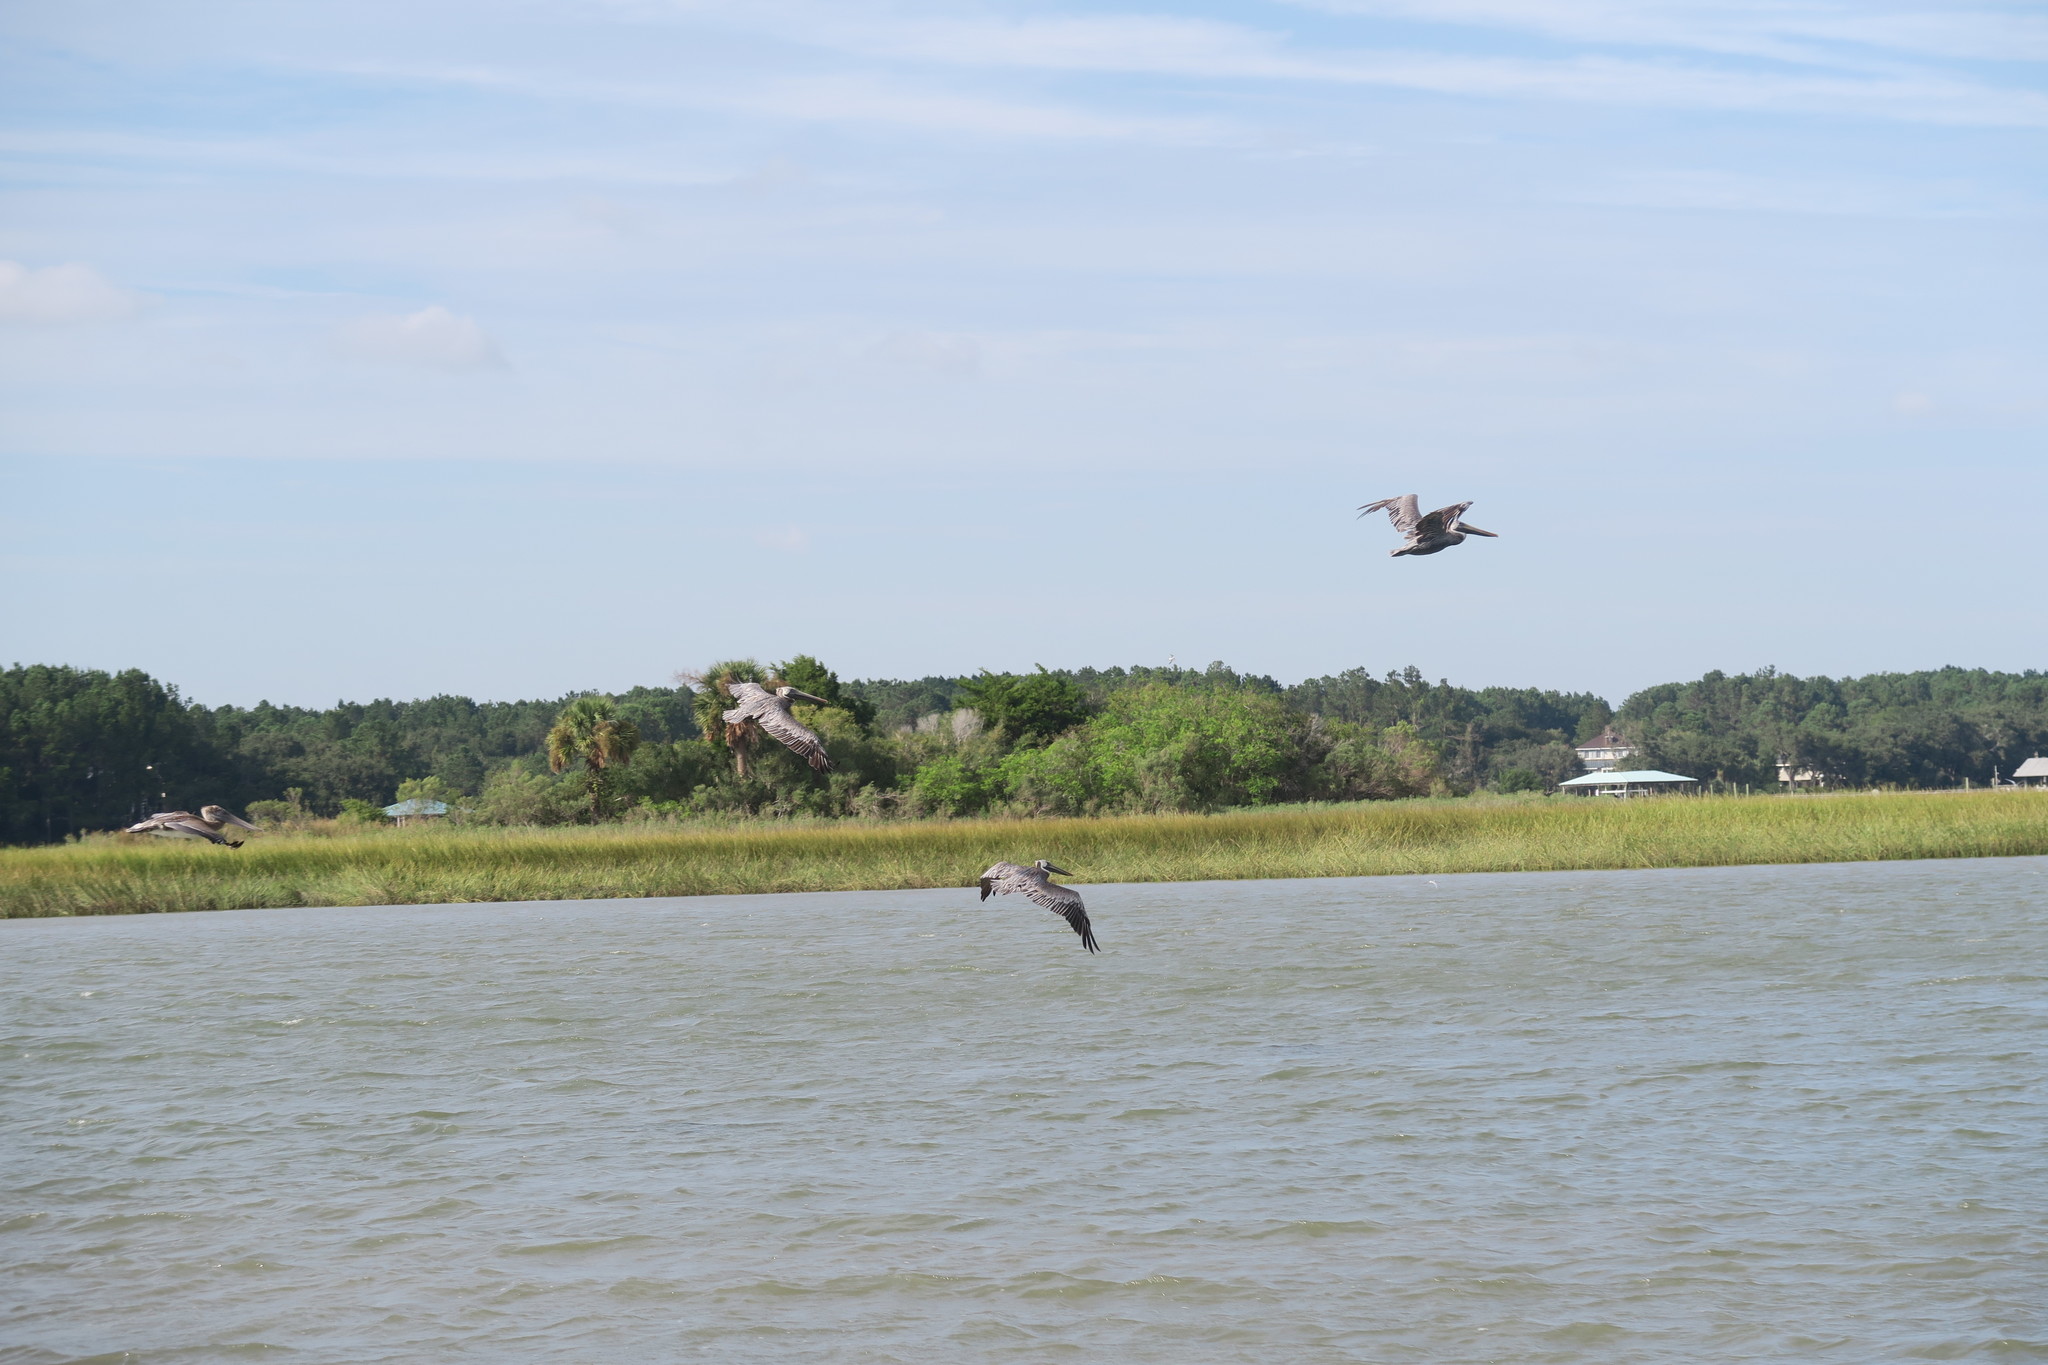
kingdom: Animalia
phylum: Chordata
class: Aves
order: Pelecaniformes
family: Pelecanidae
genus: Pelecanus
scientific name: Pelecanus occidentalis
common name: Brown pelican
